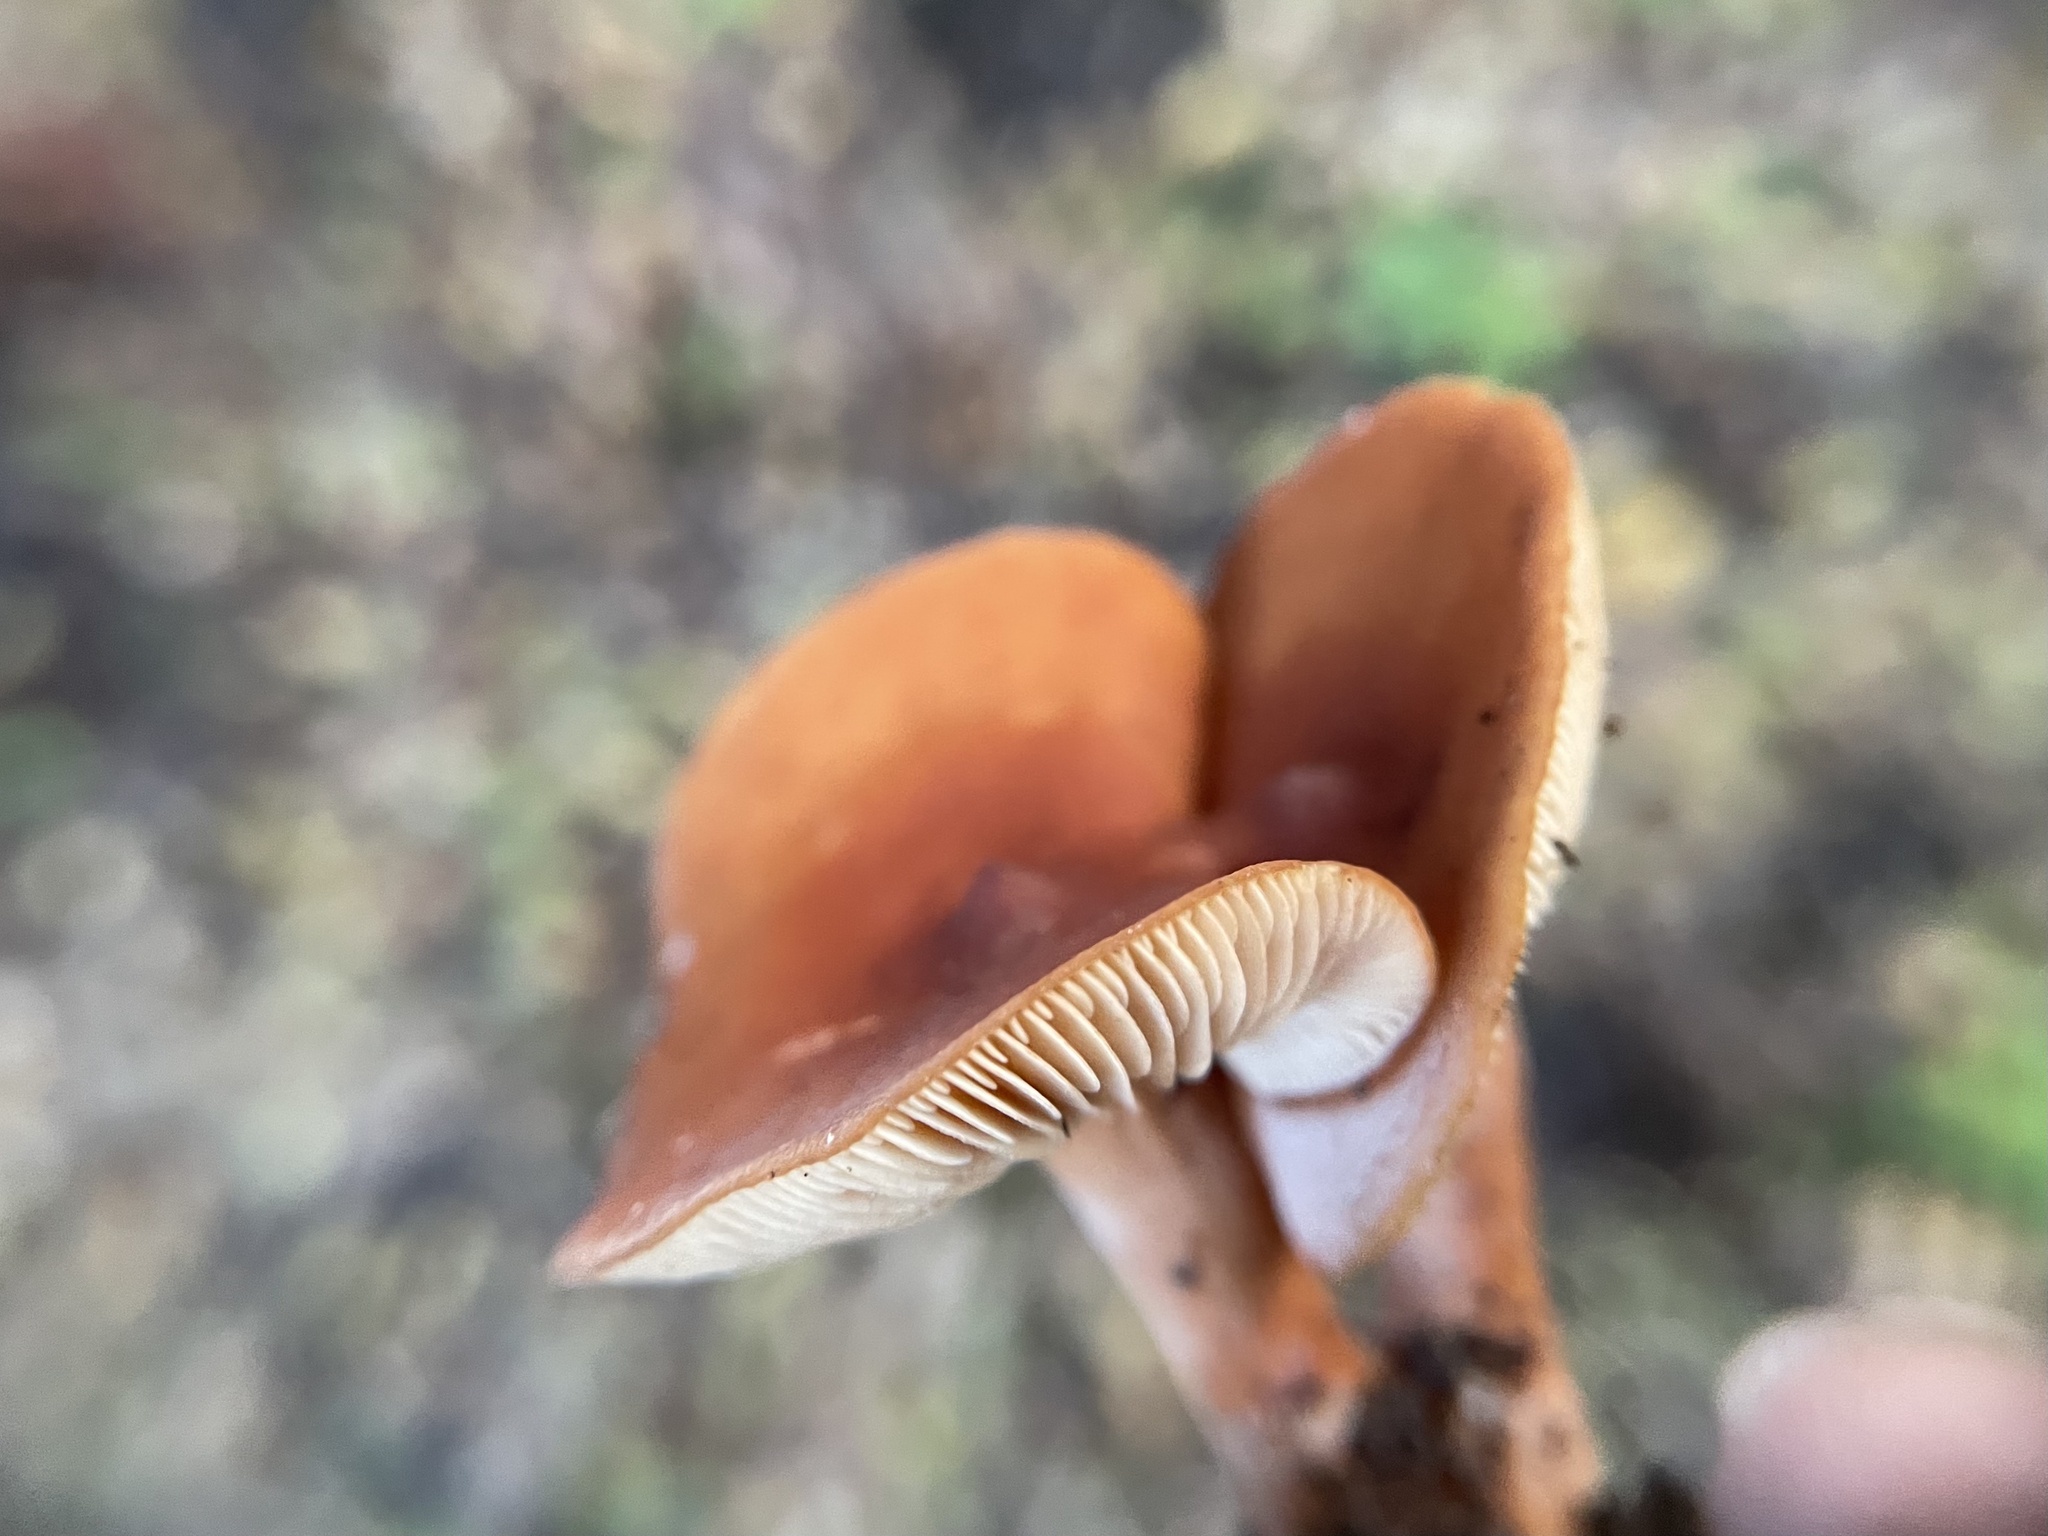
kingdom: Fungi
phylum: Basidiomycota
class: Agaricomycetes
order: Russulales
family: Russulaceae
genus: Lactarius
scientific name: Lactarius rubidus
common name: Candy cap
